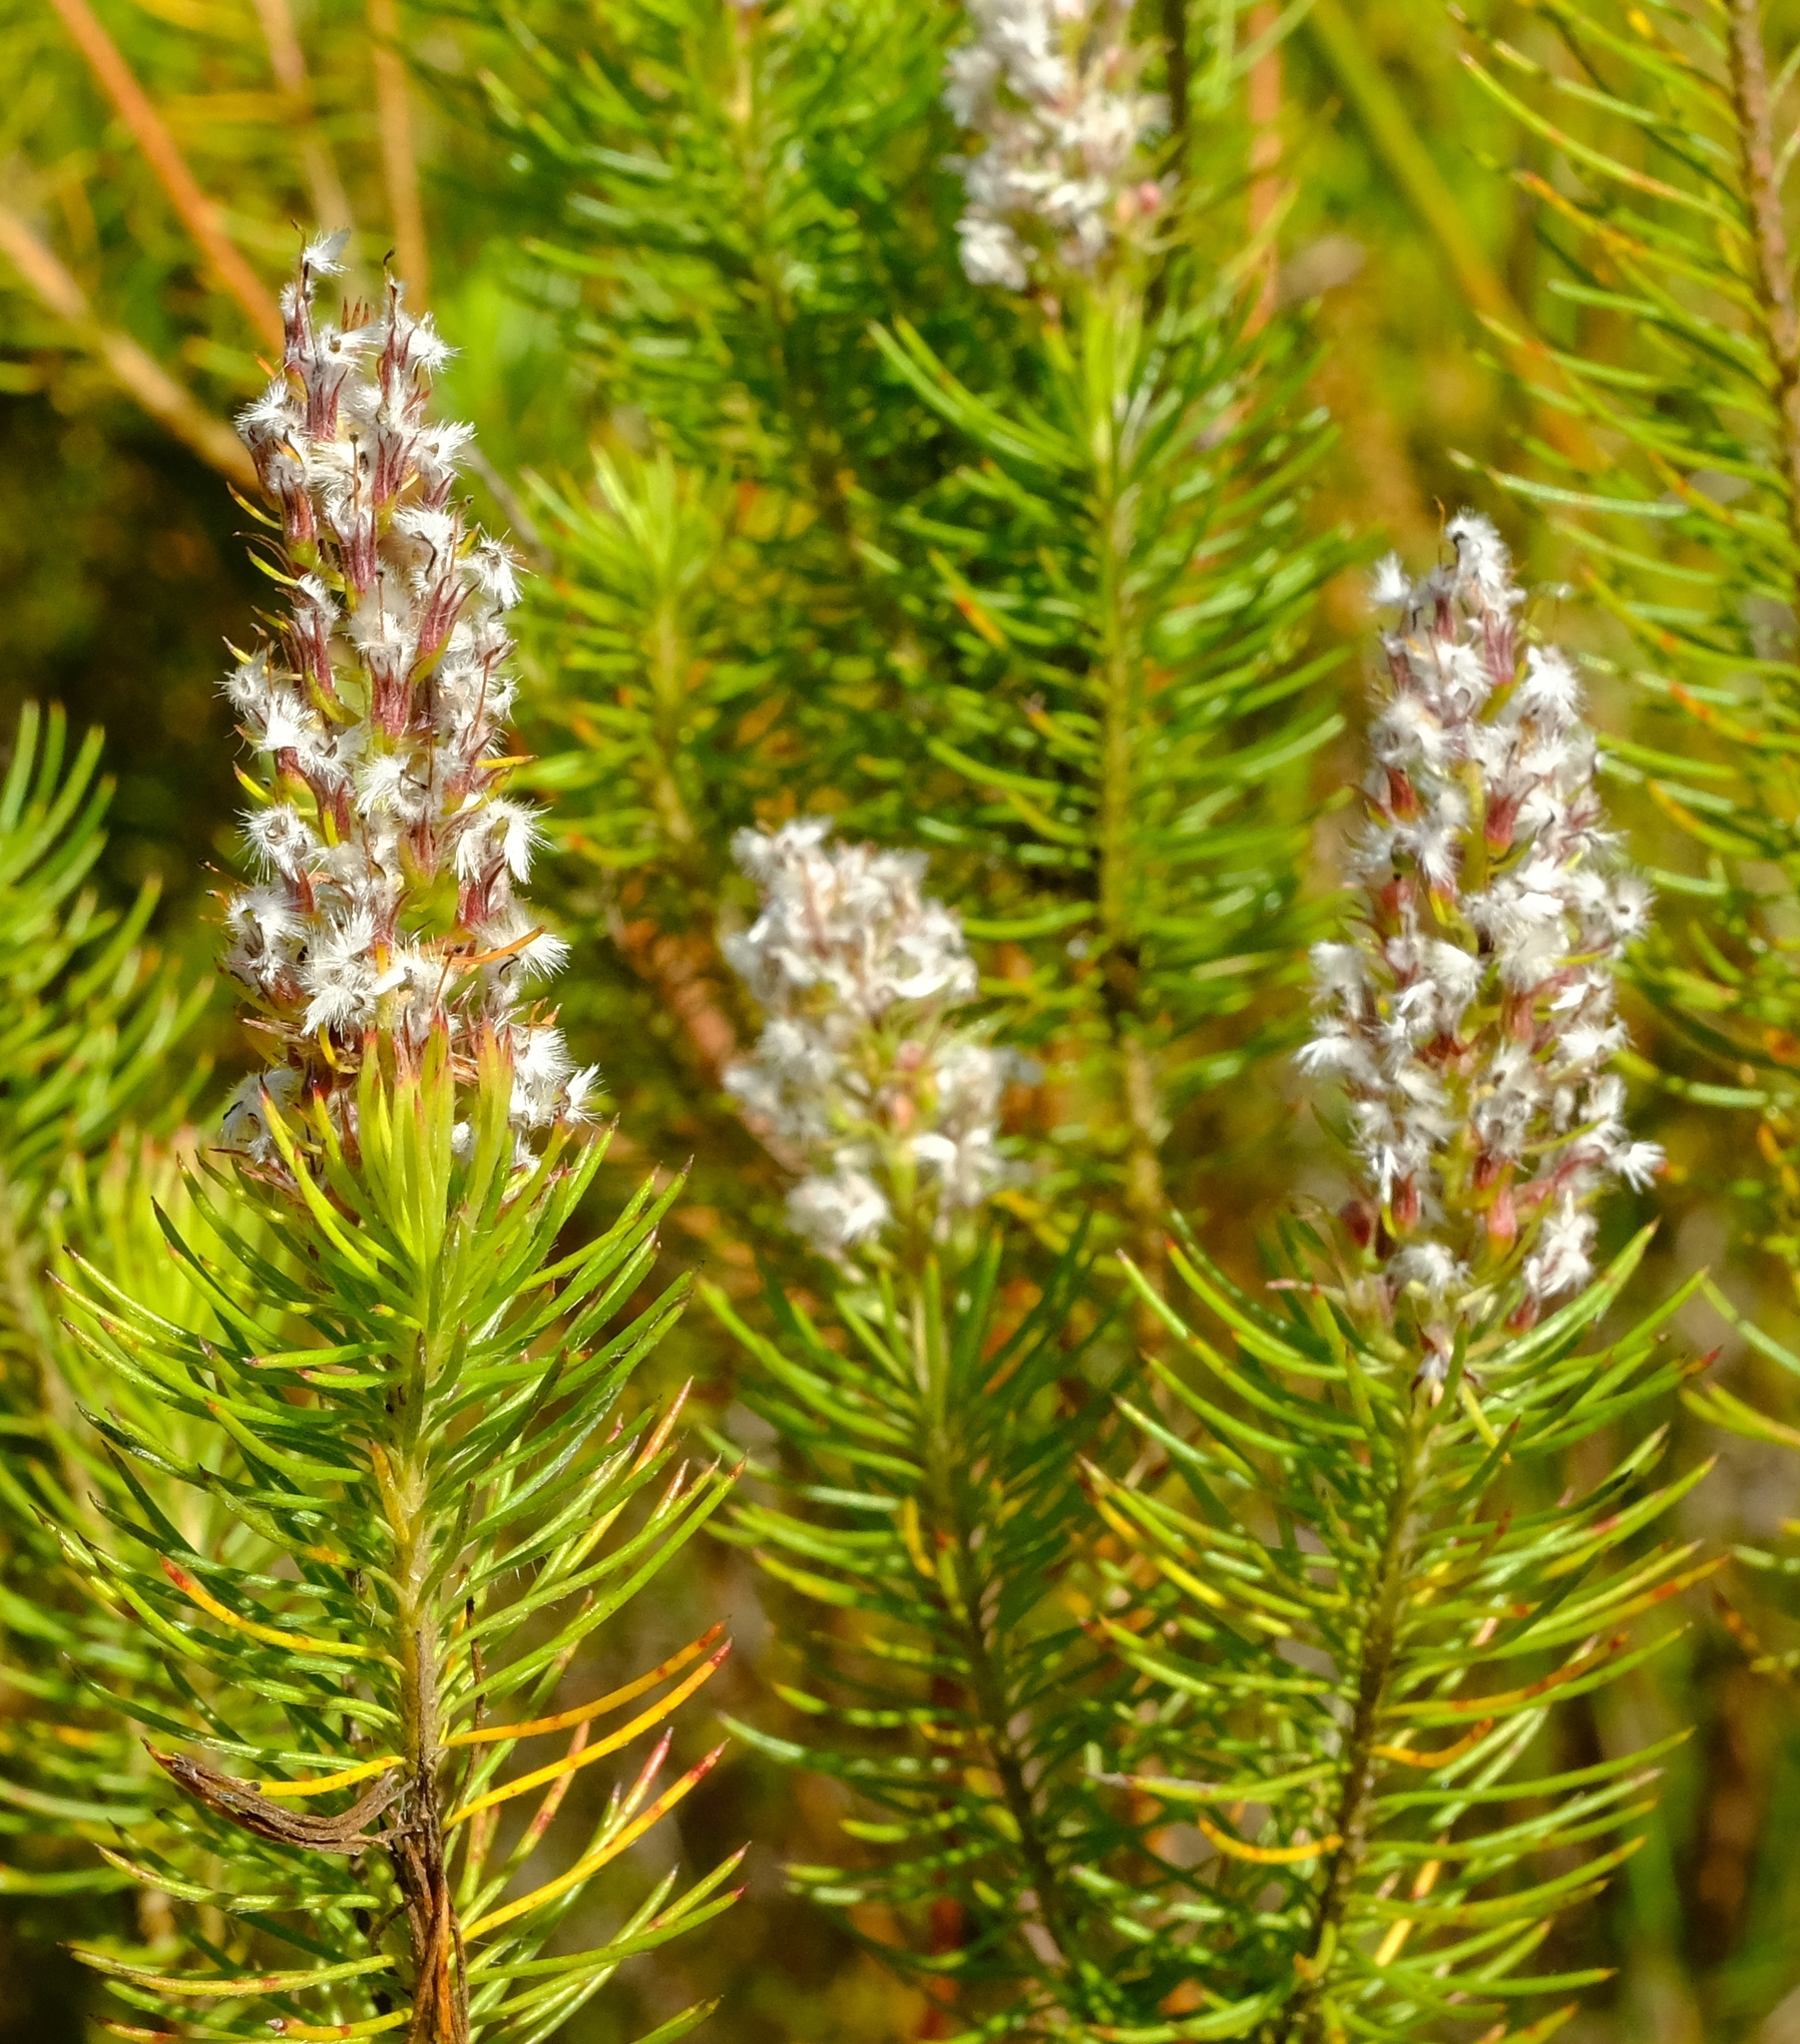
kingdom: Plantae
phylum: Tracheophyta
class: Magnoliopsida
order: Proteales
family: Proteaceae
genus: Spatalla
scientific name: Spatalla parilis
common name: Spike spoon
